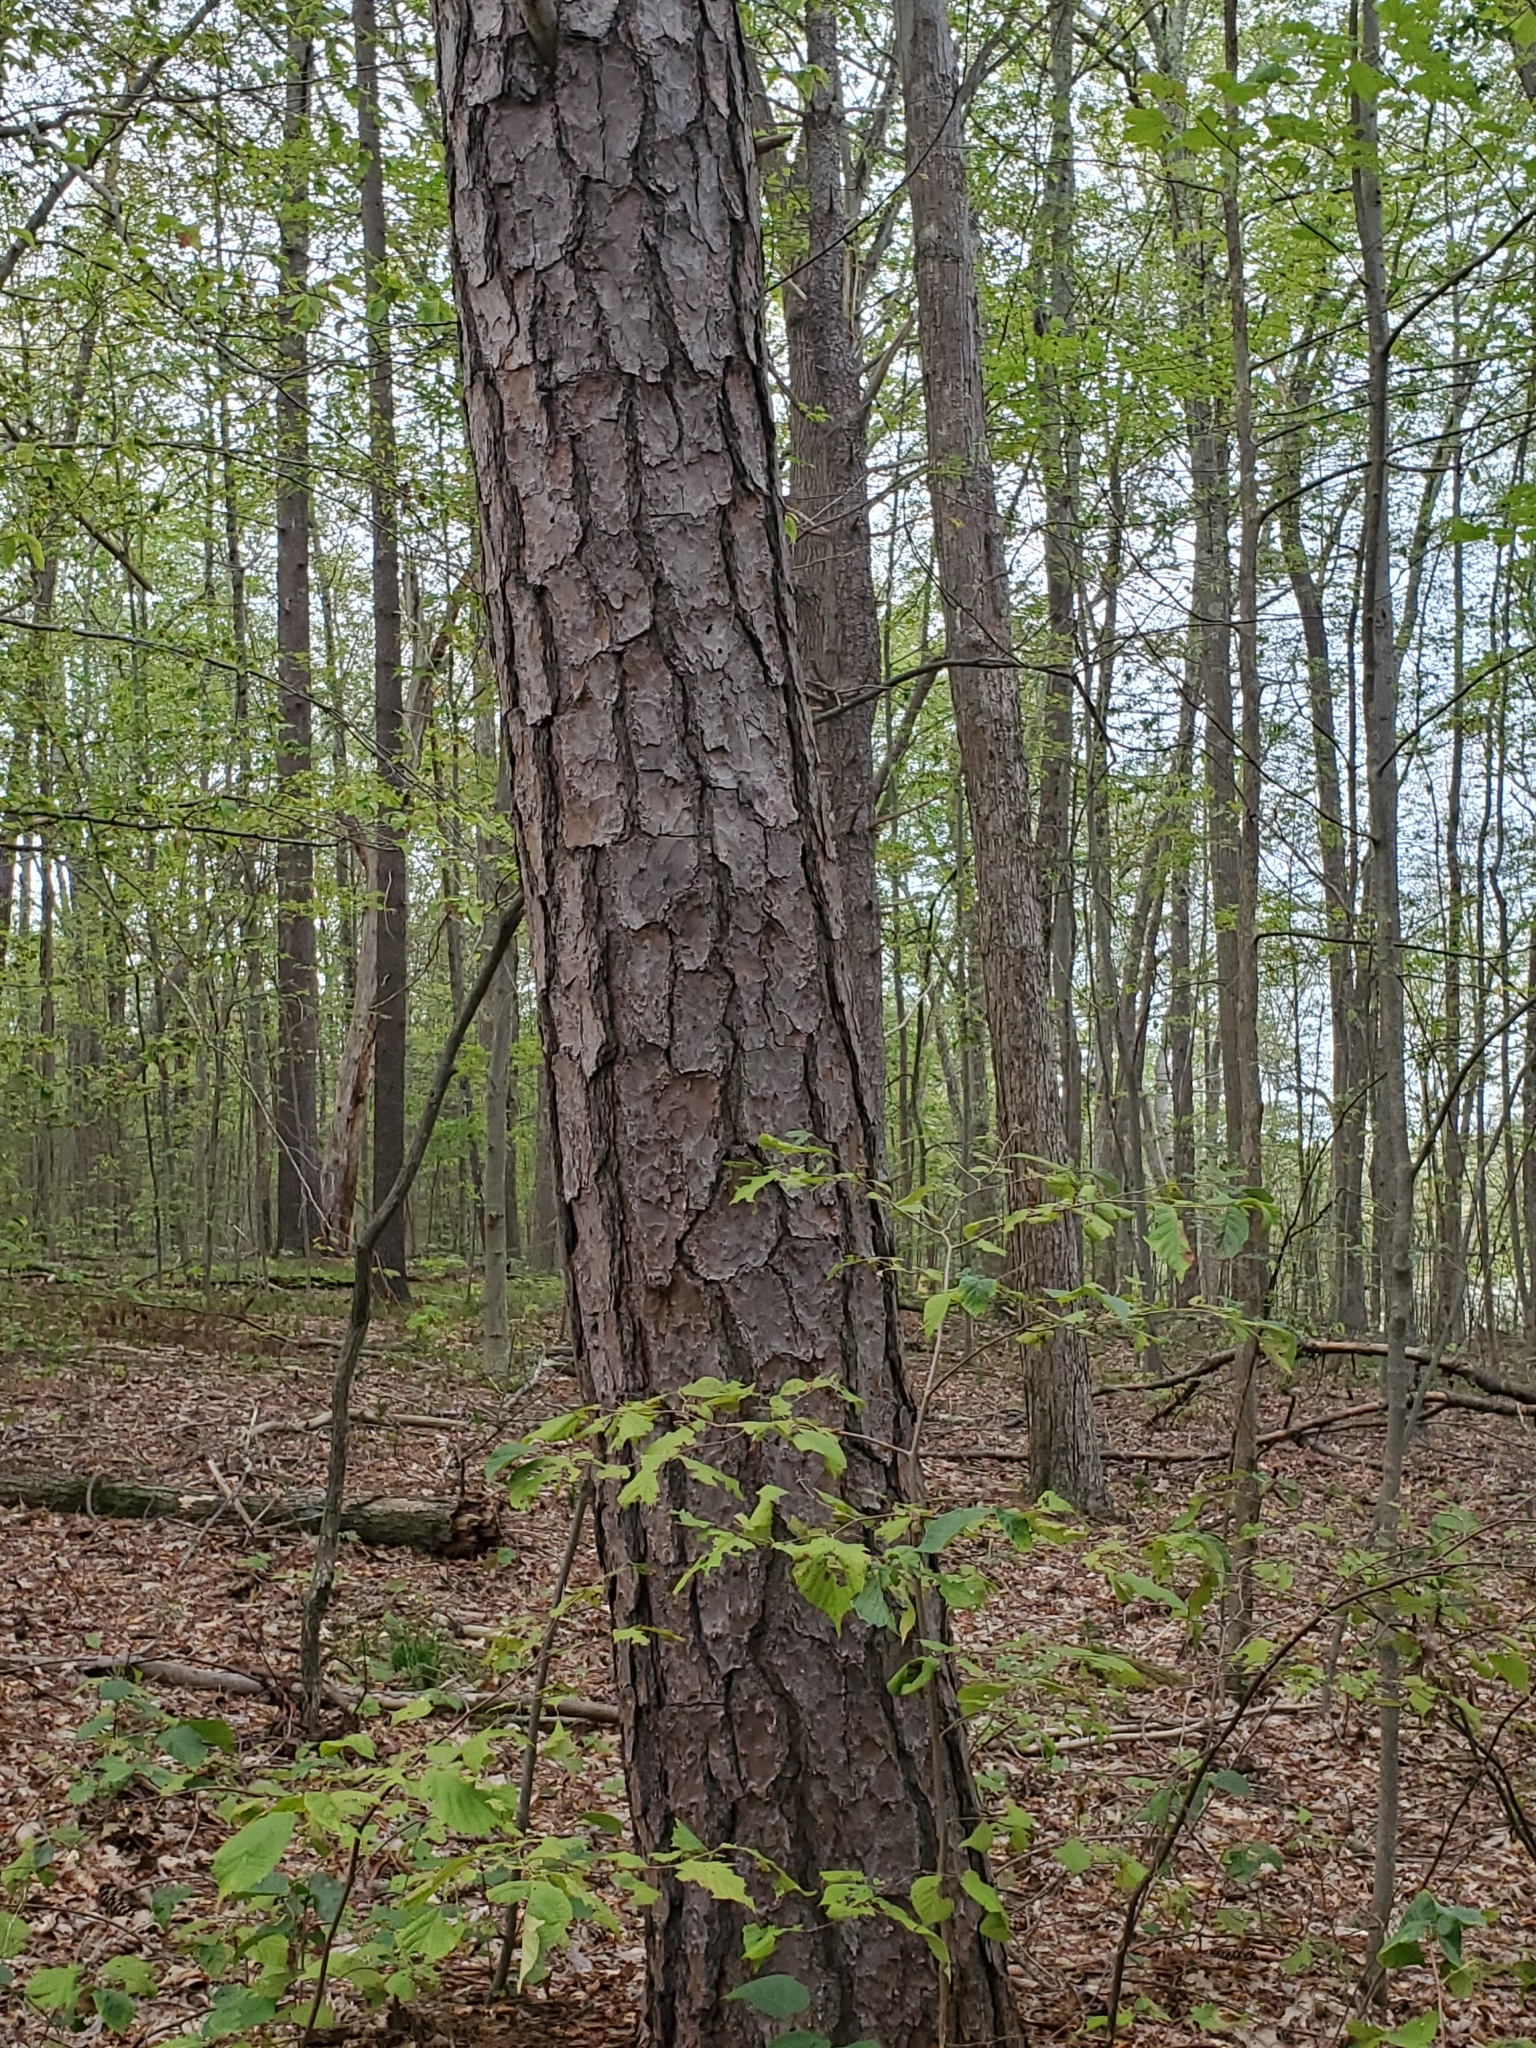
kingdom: Plantae
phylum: Tracheophyta
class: Pinopsida
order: Pinales
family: Pinaceae
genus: Pinus
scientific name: Pinus rigida
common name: Pitch pine
